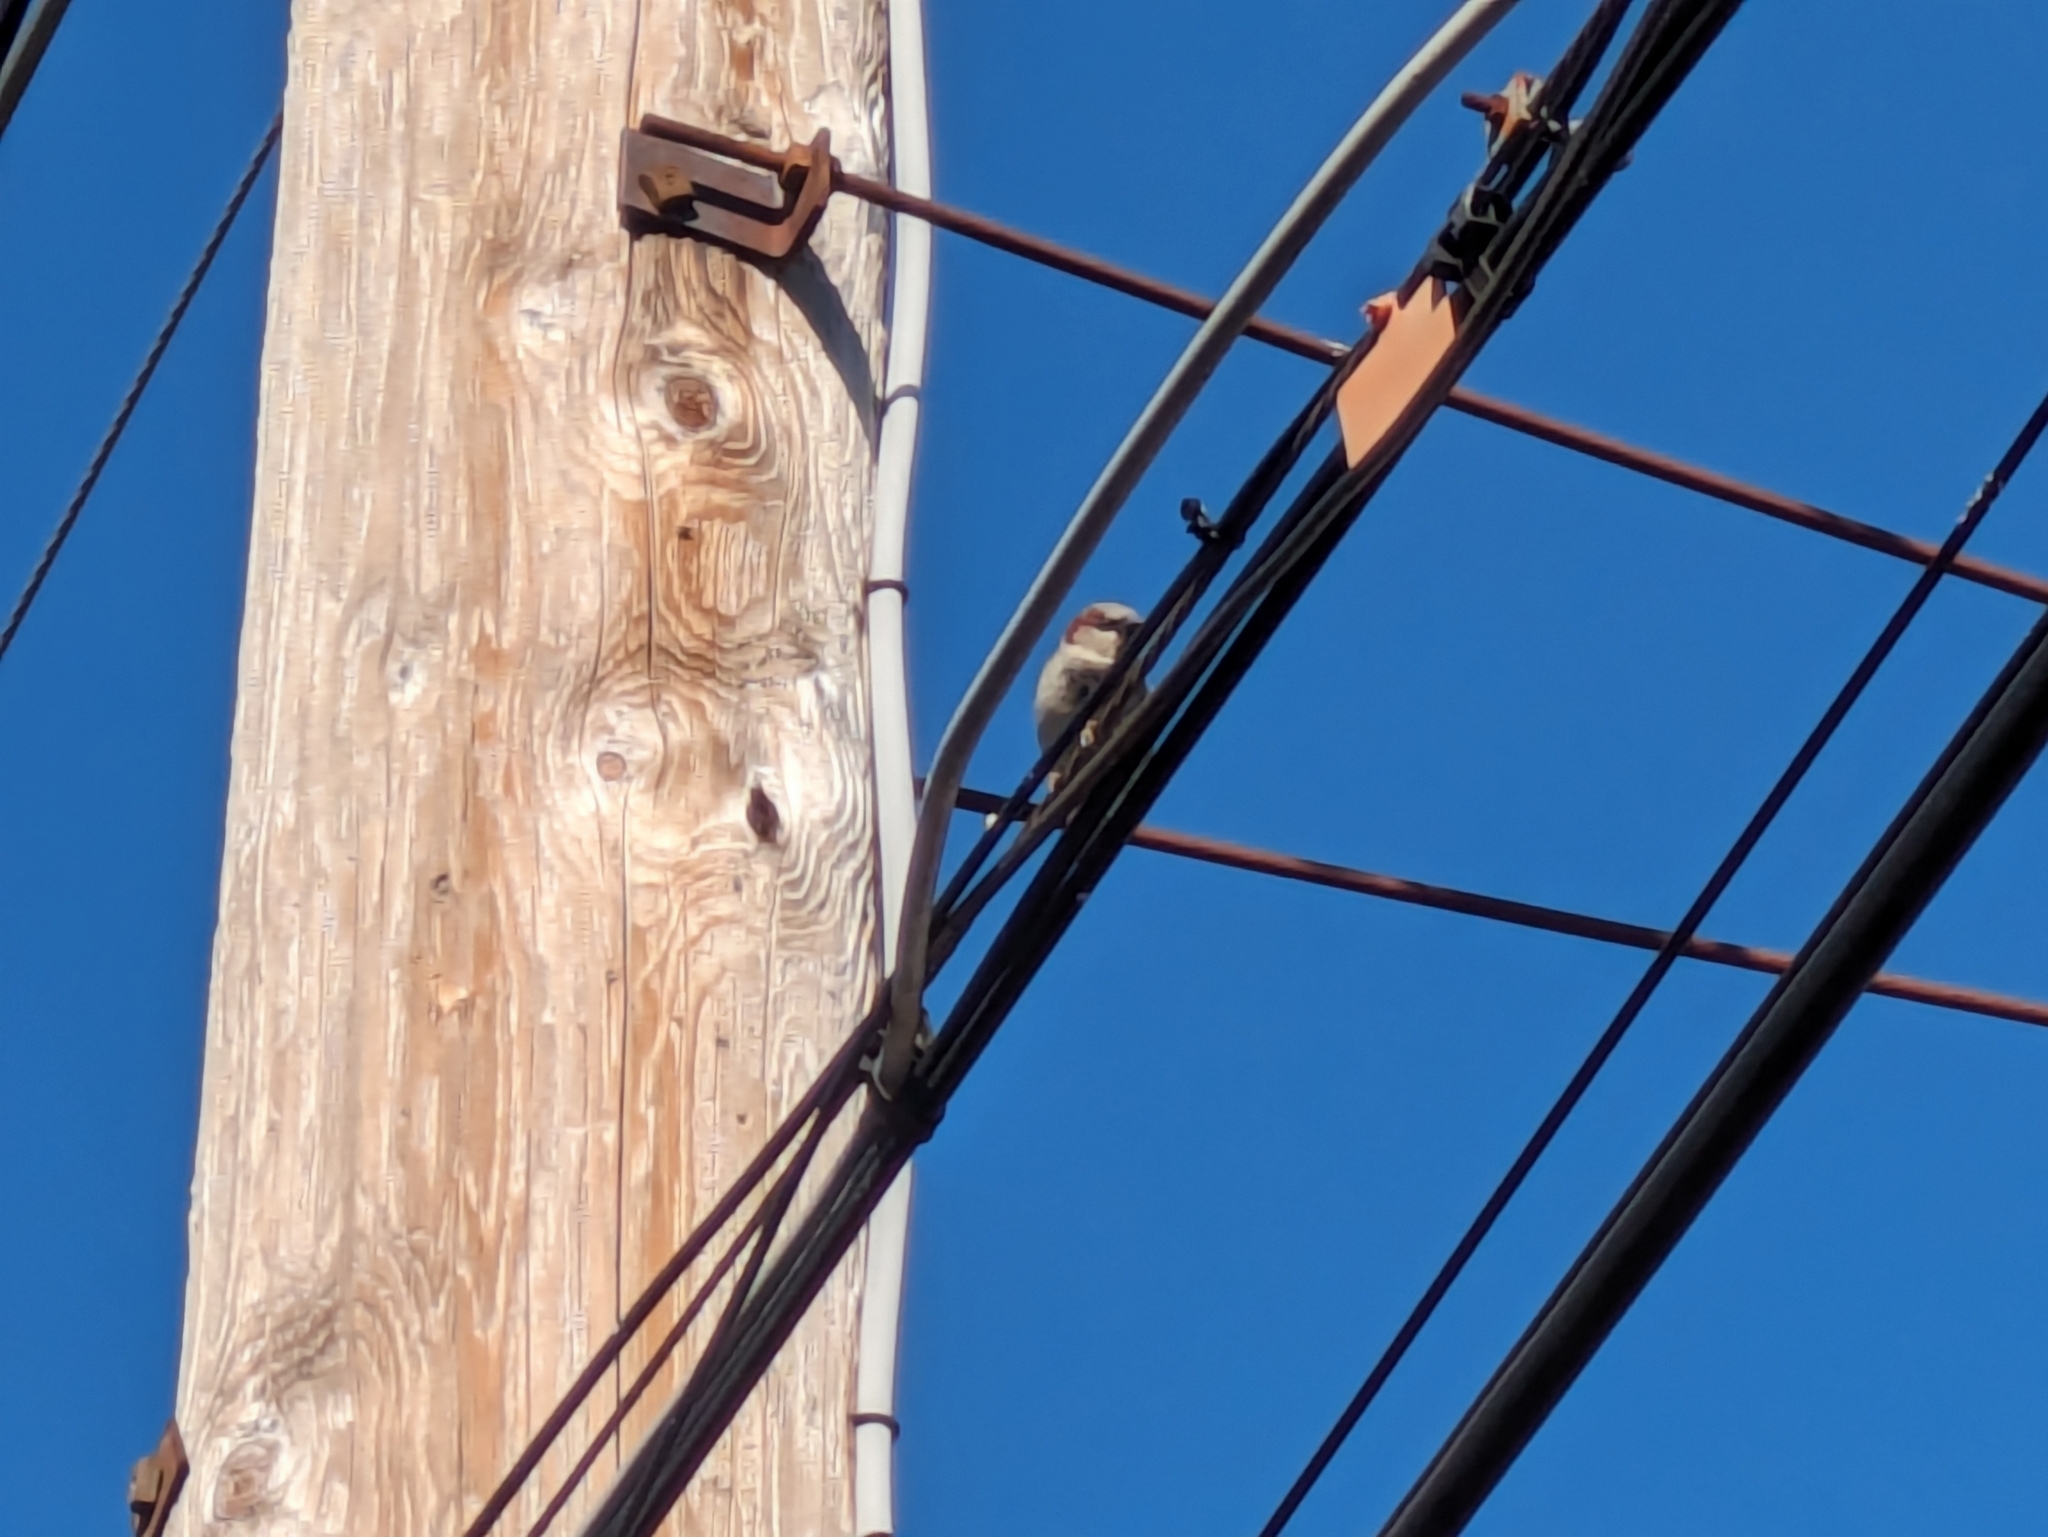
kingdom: Animalia
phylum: Chordata
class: Aves
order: Passeriformes
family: Passeridae
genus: Passer
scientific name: Passer domesticus
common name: House sparrow
